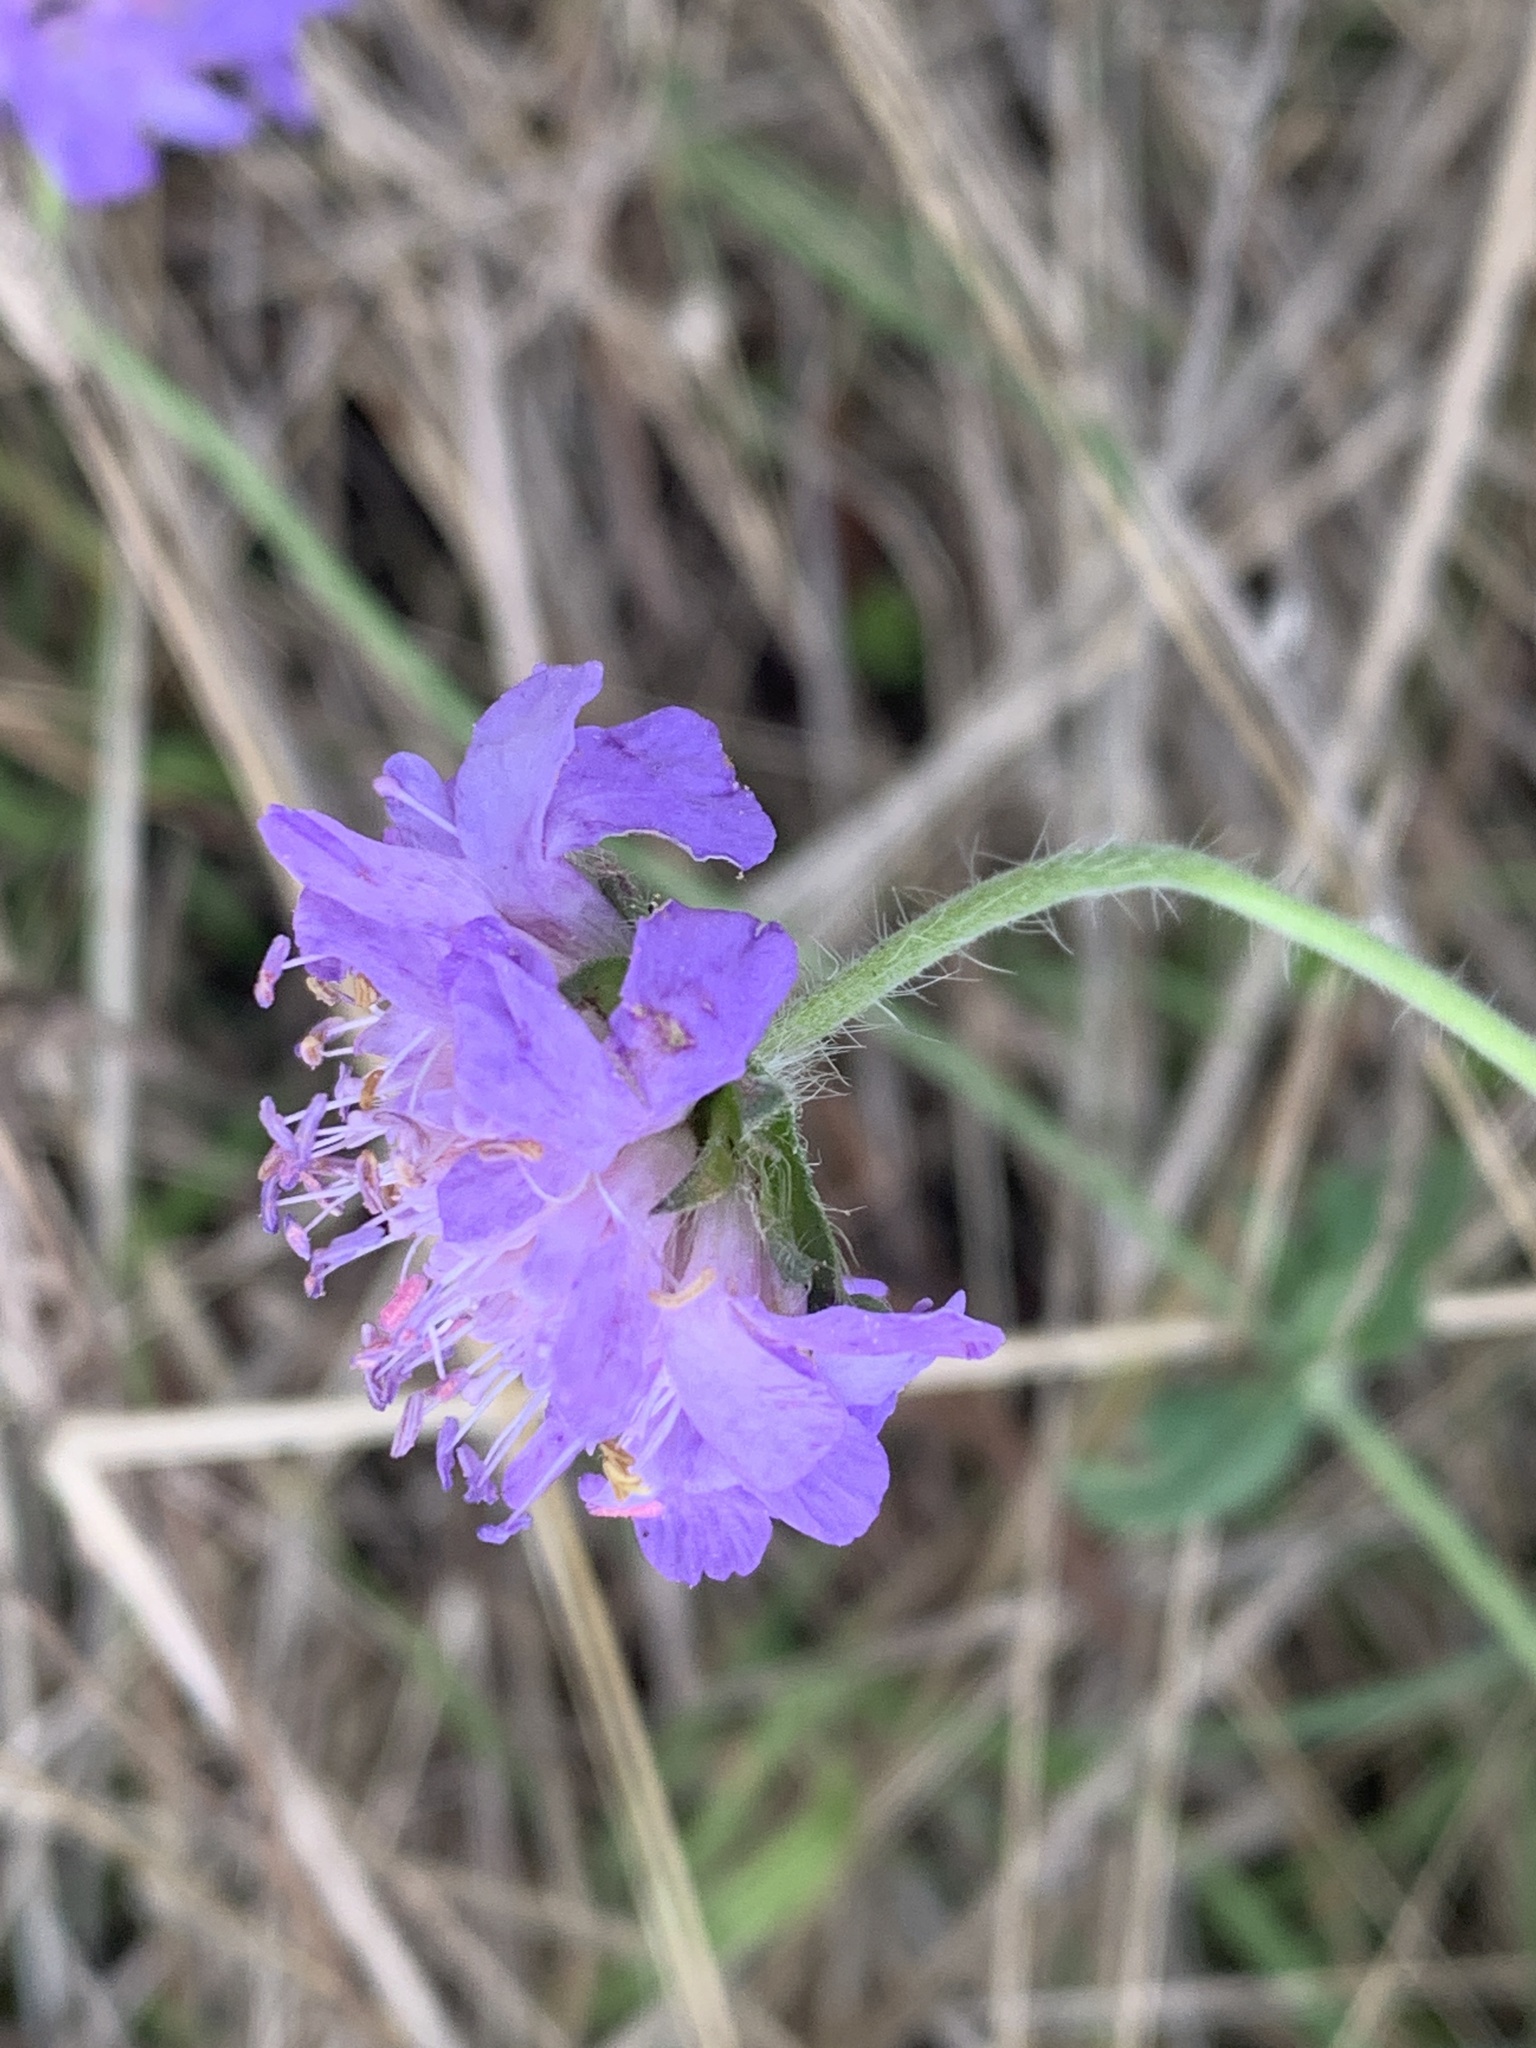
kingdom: Plantae
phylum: Tracheophyta
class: Magnoliopsida
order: Dipsacales
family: Caprifoliaceae
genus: Knautia
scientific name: Knautia arvensis
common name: Field scabiosa
